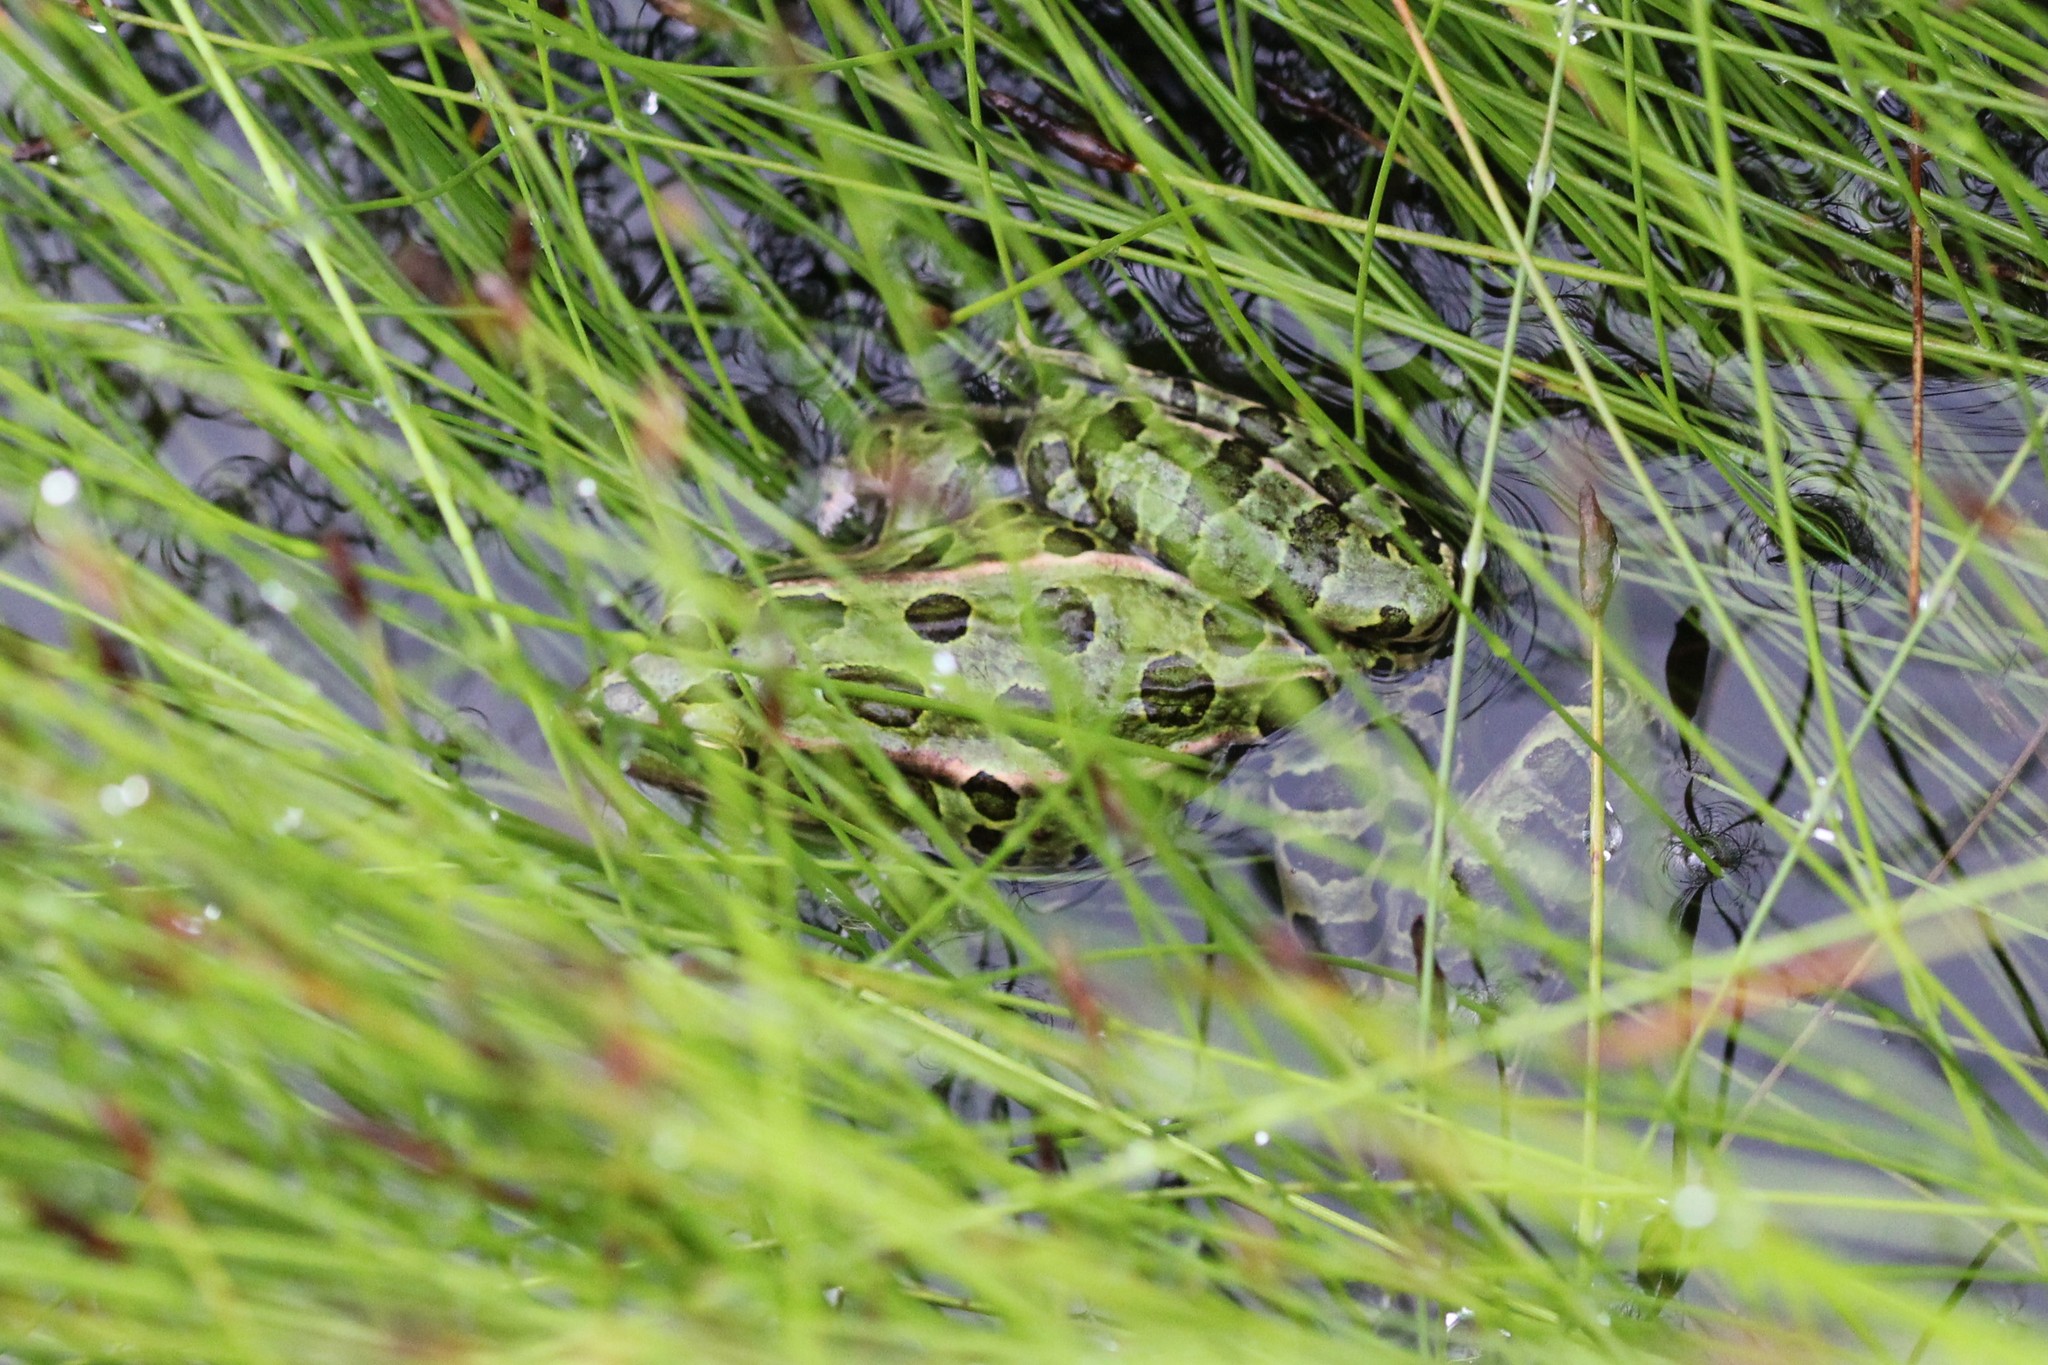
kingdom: Animalia
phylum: Chordata
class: Amphibia
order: Anura
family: Ranidae
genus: Lithobates
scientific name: Lithobates pipiens
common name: Northern leopard frog
